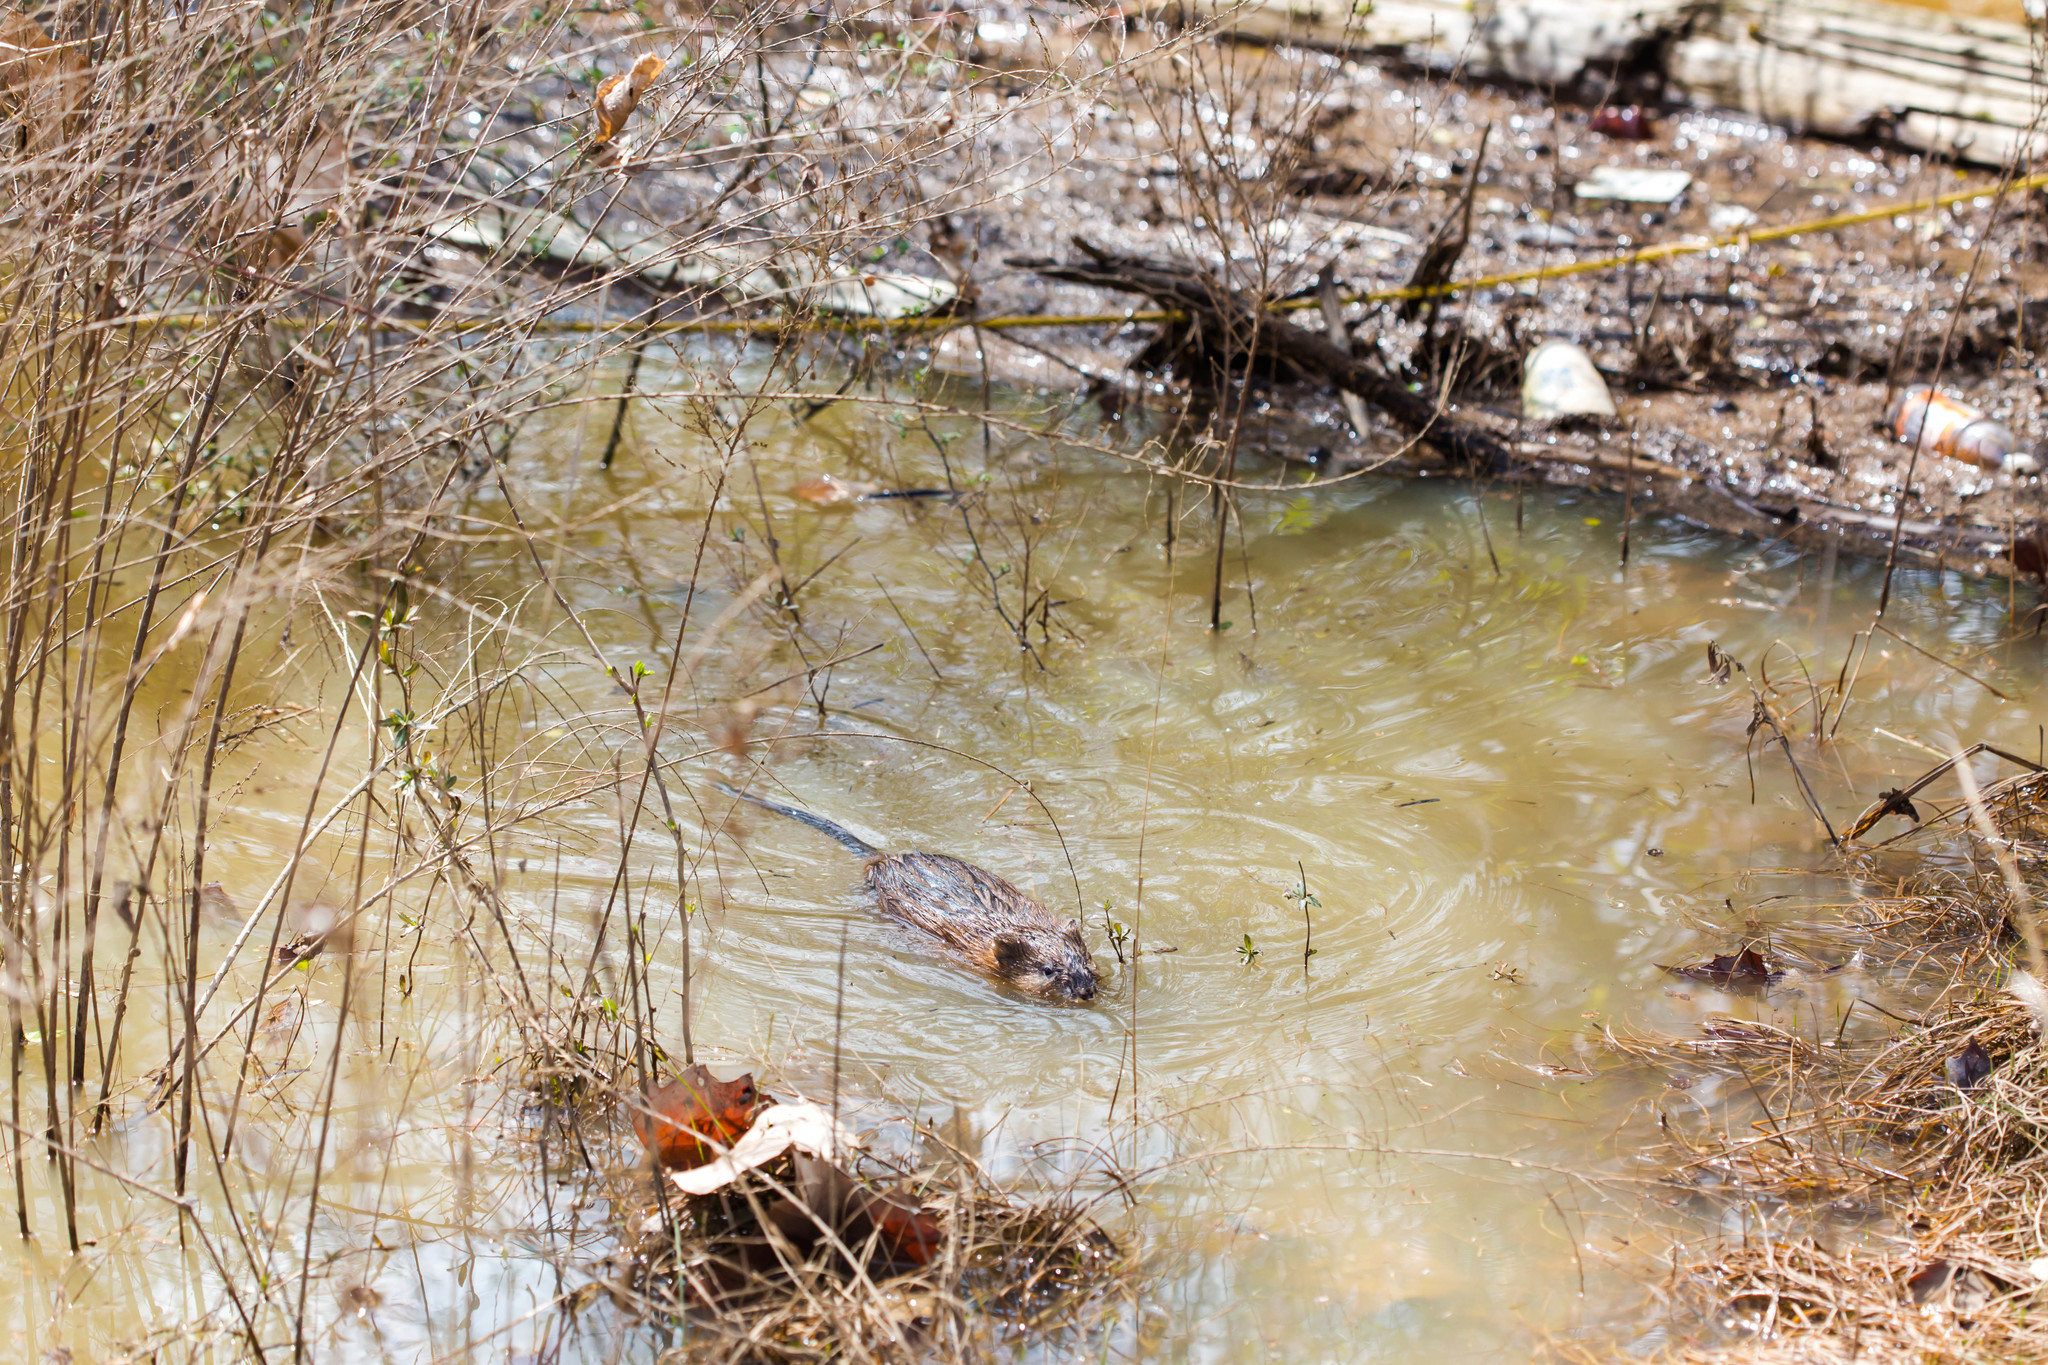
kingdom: Animalia
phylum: Chordata
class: Mammalia
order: Rodentia
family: Cricetidae
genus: Ondatra
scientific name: Ondatra zibethicus
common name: Muskrat
